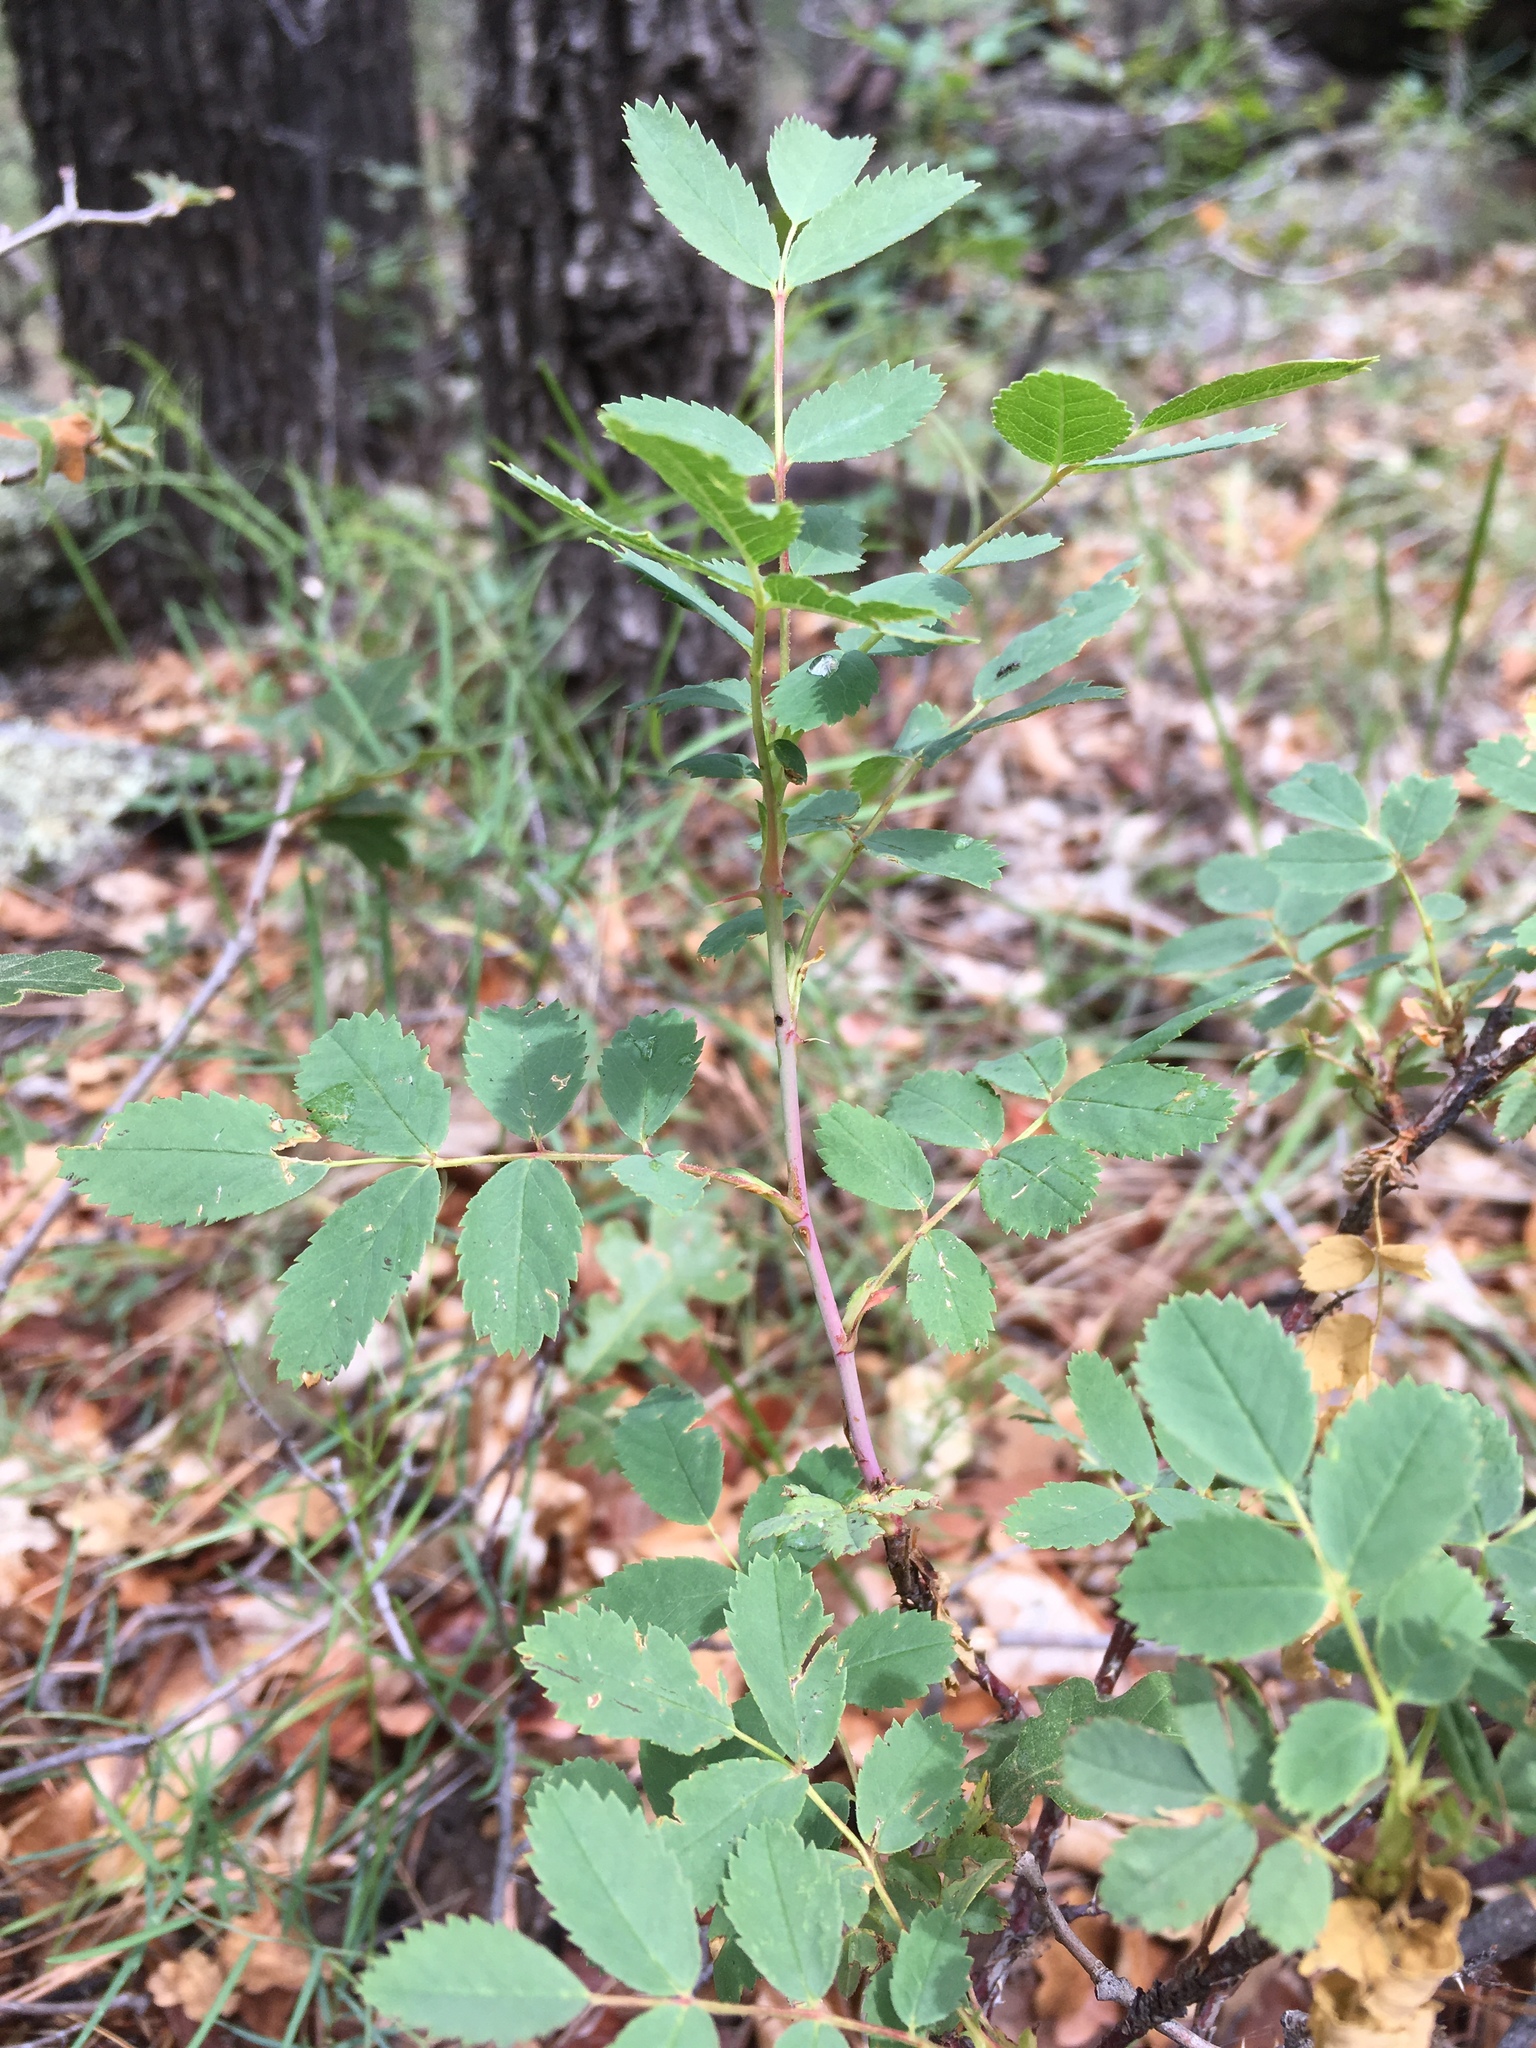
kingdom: Plantae
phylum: Tracheophyta
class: Magnoliopsida
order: Rosales
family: Rosaceae
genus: Rosa
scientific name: Rosa woodsii
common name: Woods's rose
